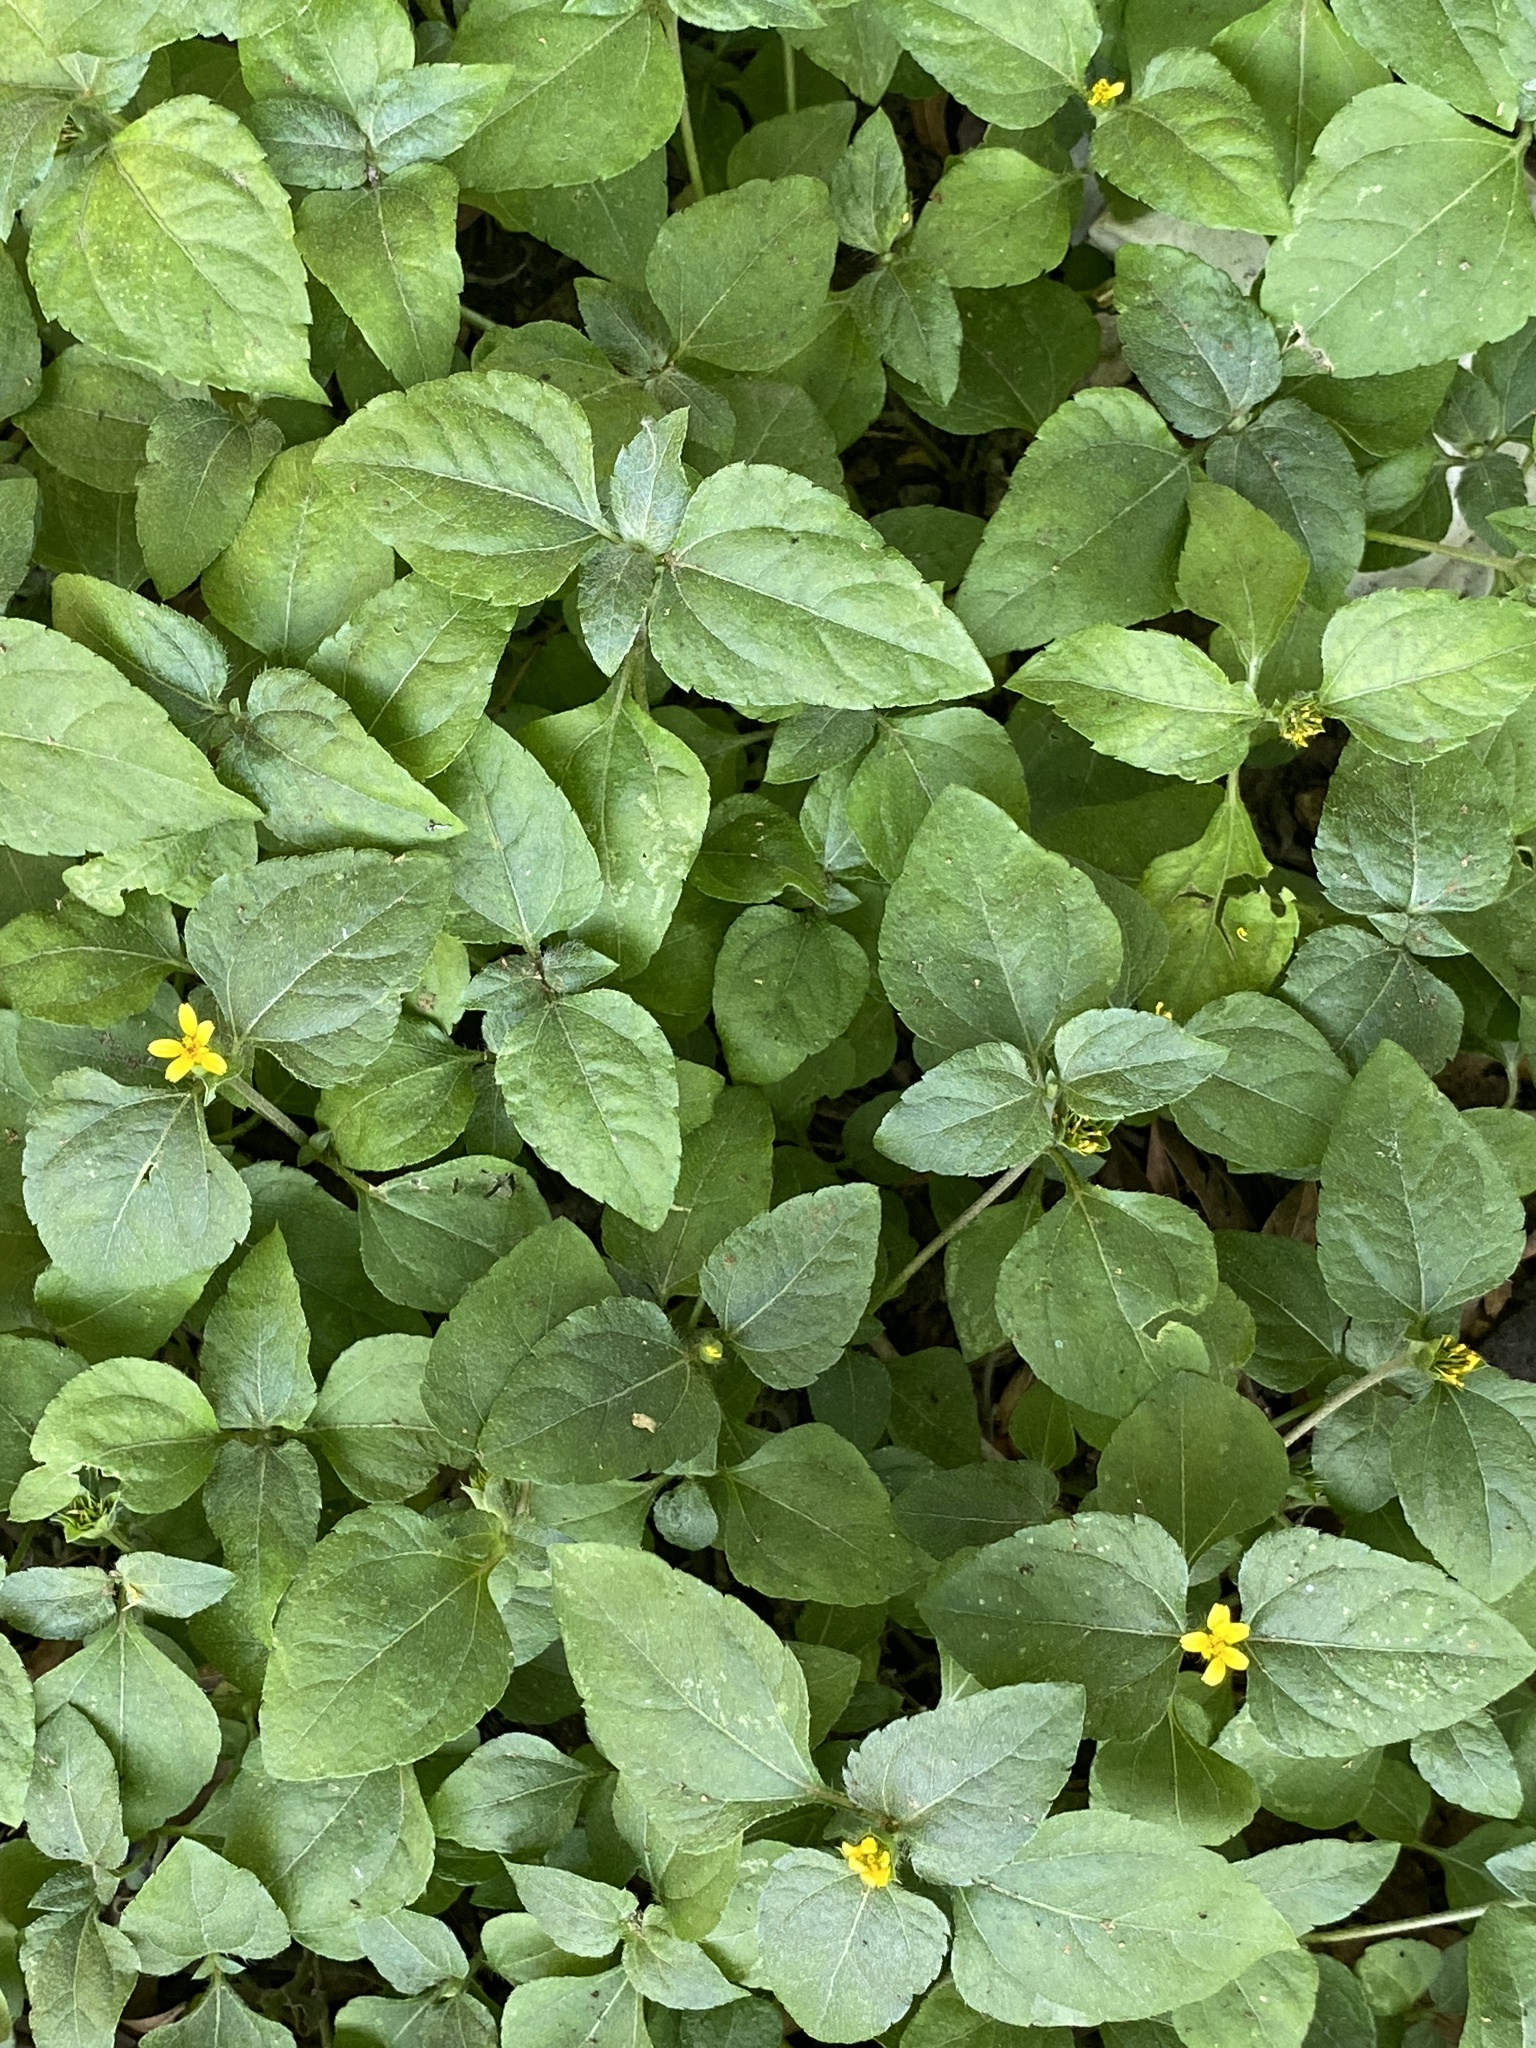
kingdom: Plantae
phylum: Tracheophyta
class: Magnoliopsida
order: Asterales
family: Asteraceae
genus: Calyptocarpus
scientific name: Calyptocarpus vialis
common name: Straggler daisy
